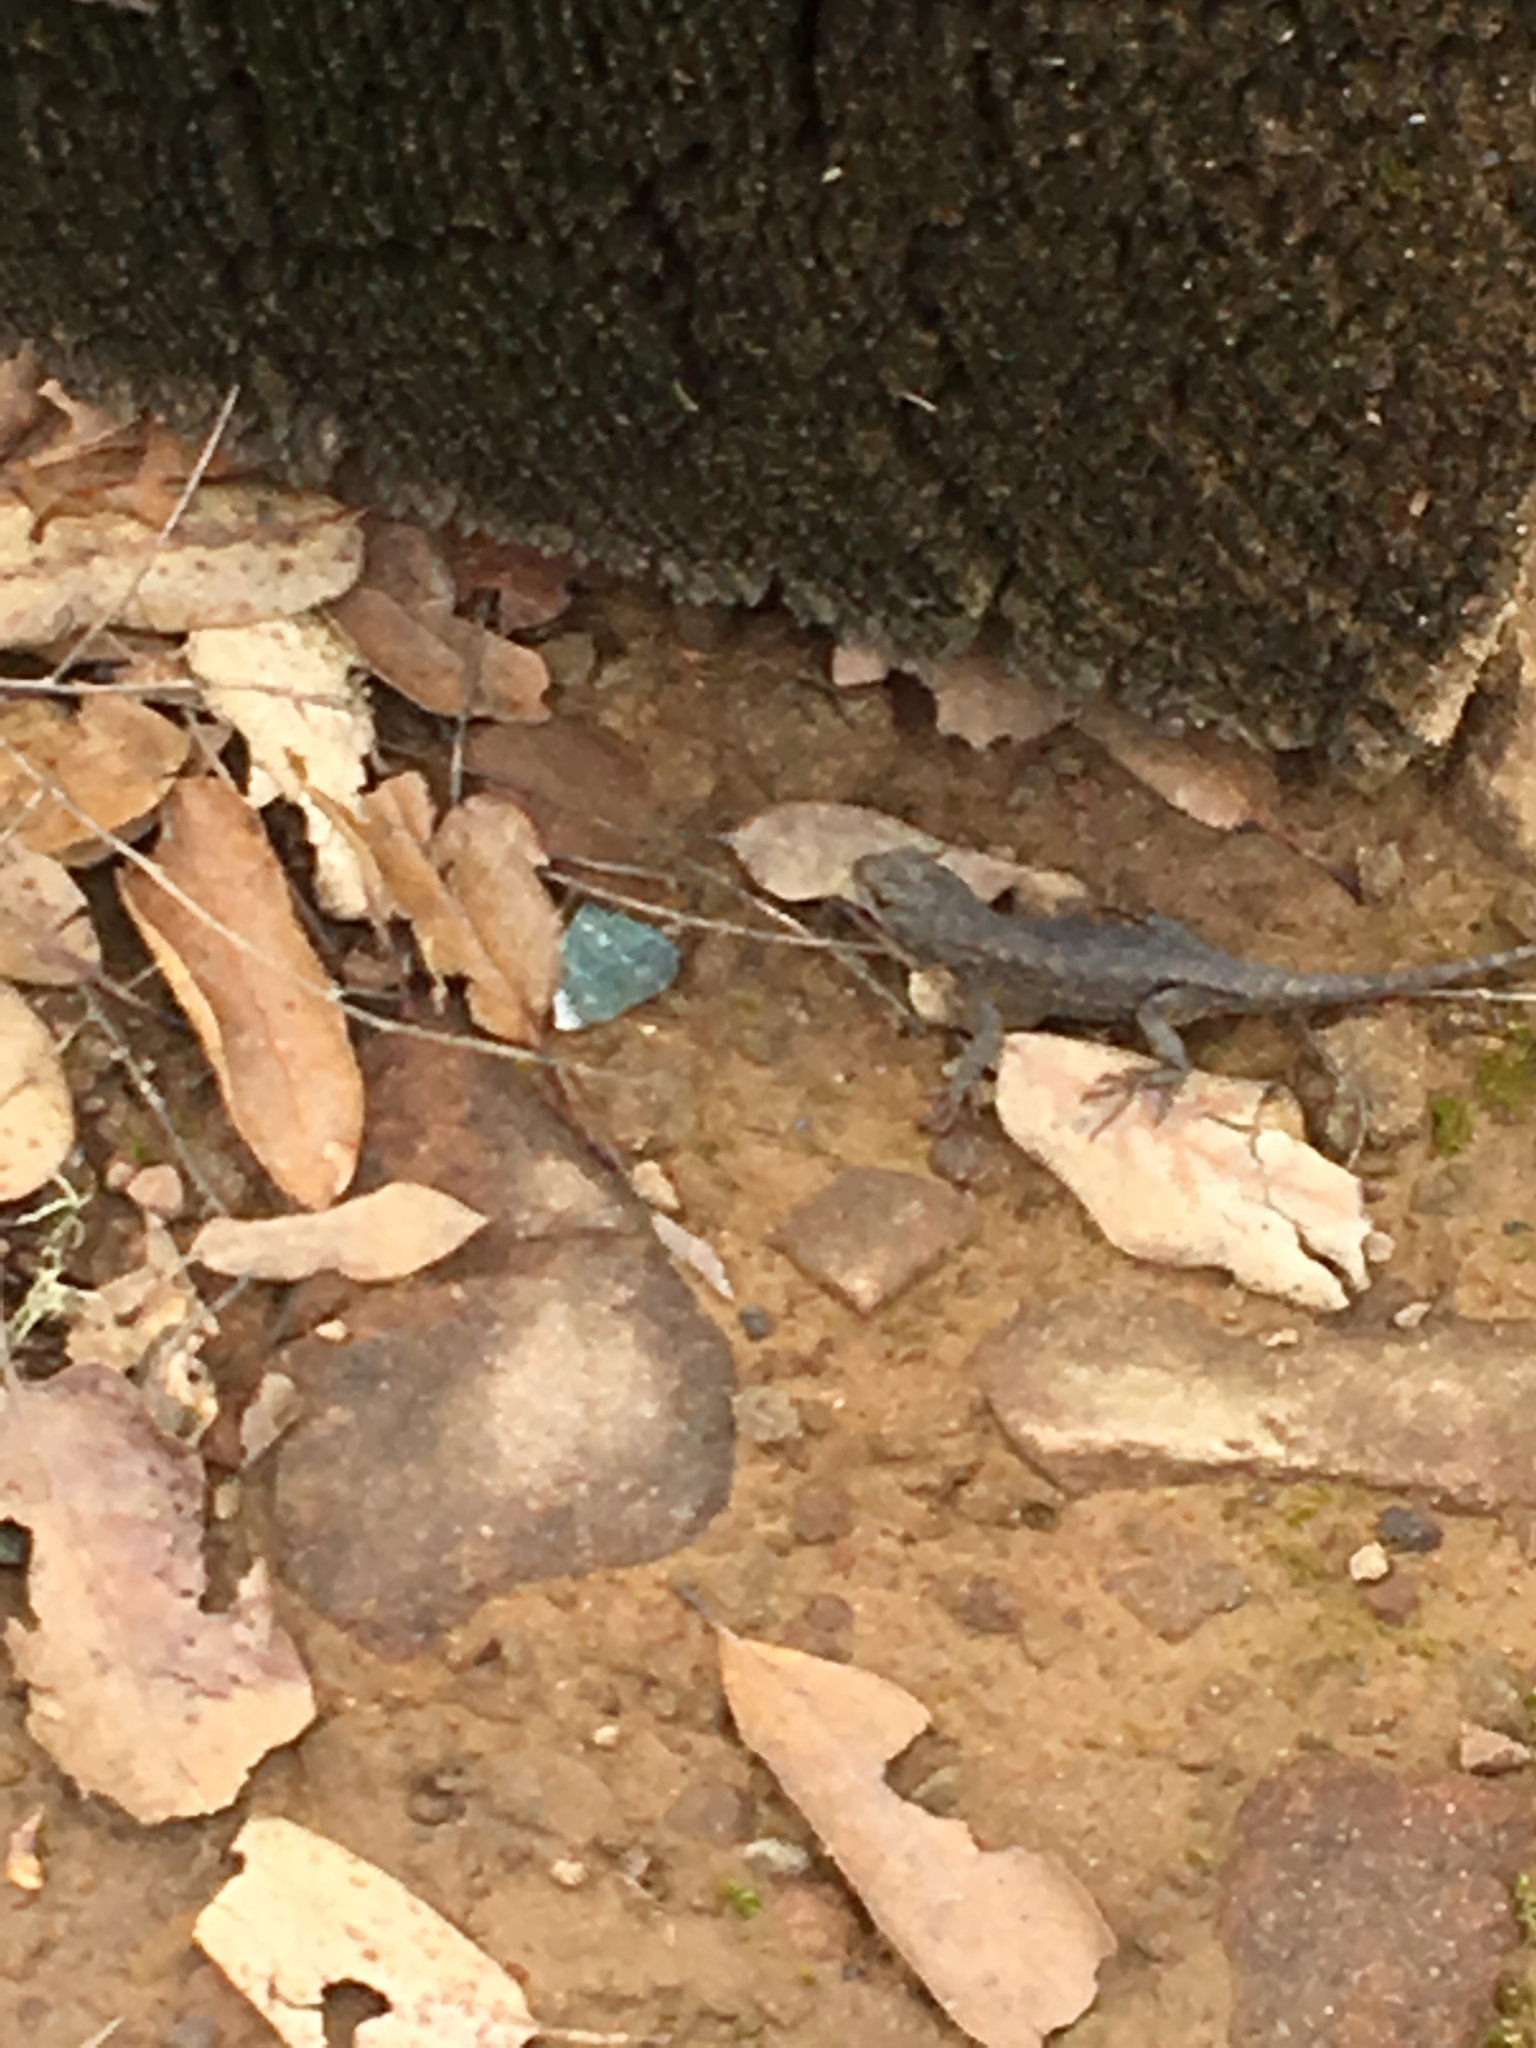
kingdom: Animalia
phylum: Chordata
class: Squamata
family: Phrynosomatidae
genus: Sceloporus
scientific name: Sceloporus occidentalis
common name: Western fence lizard
